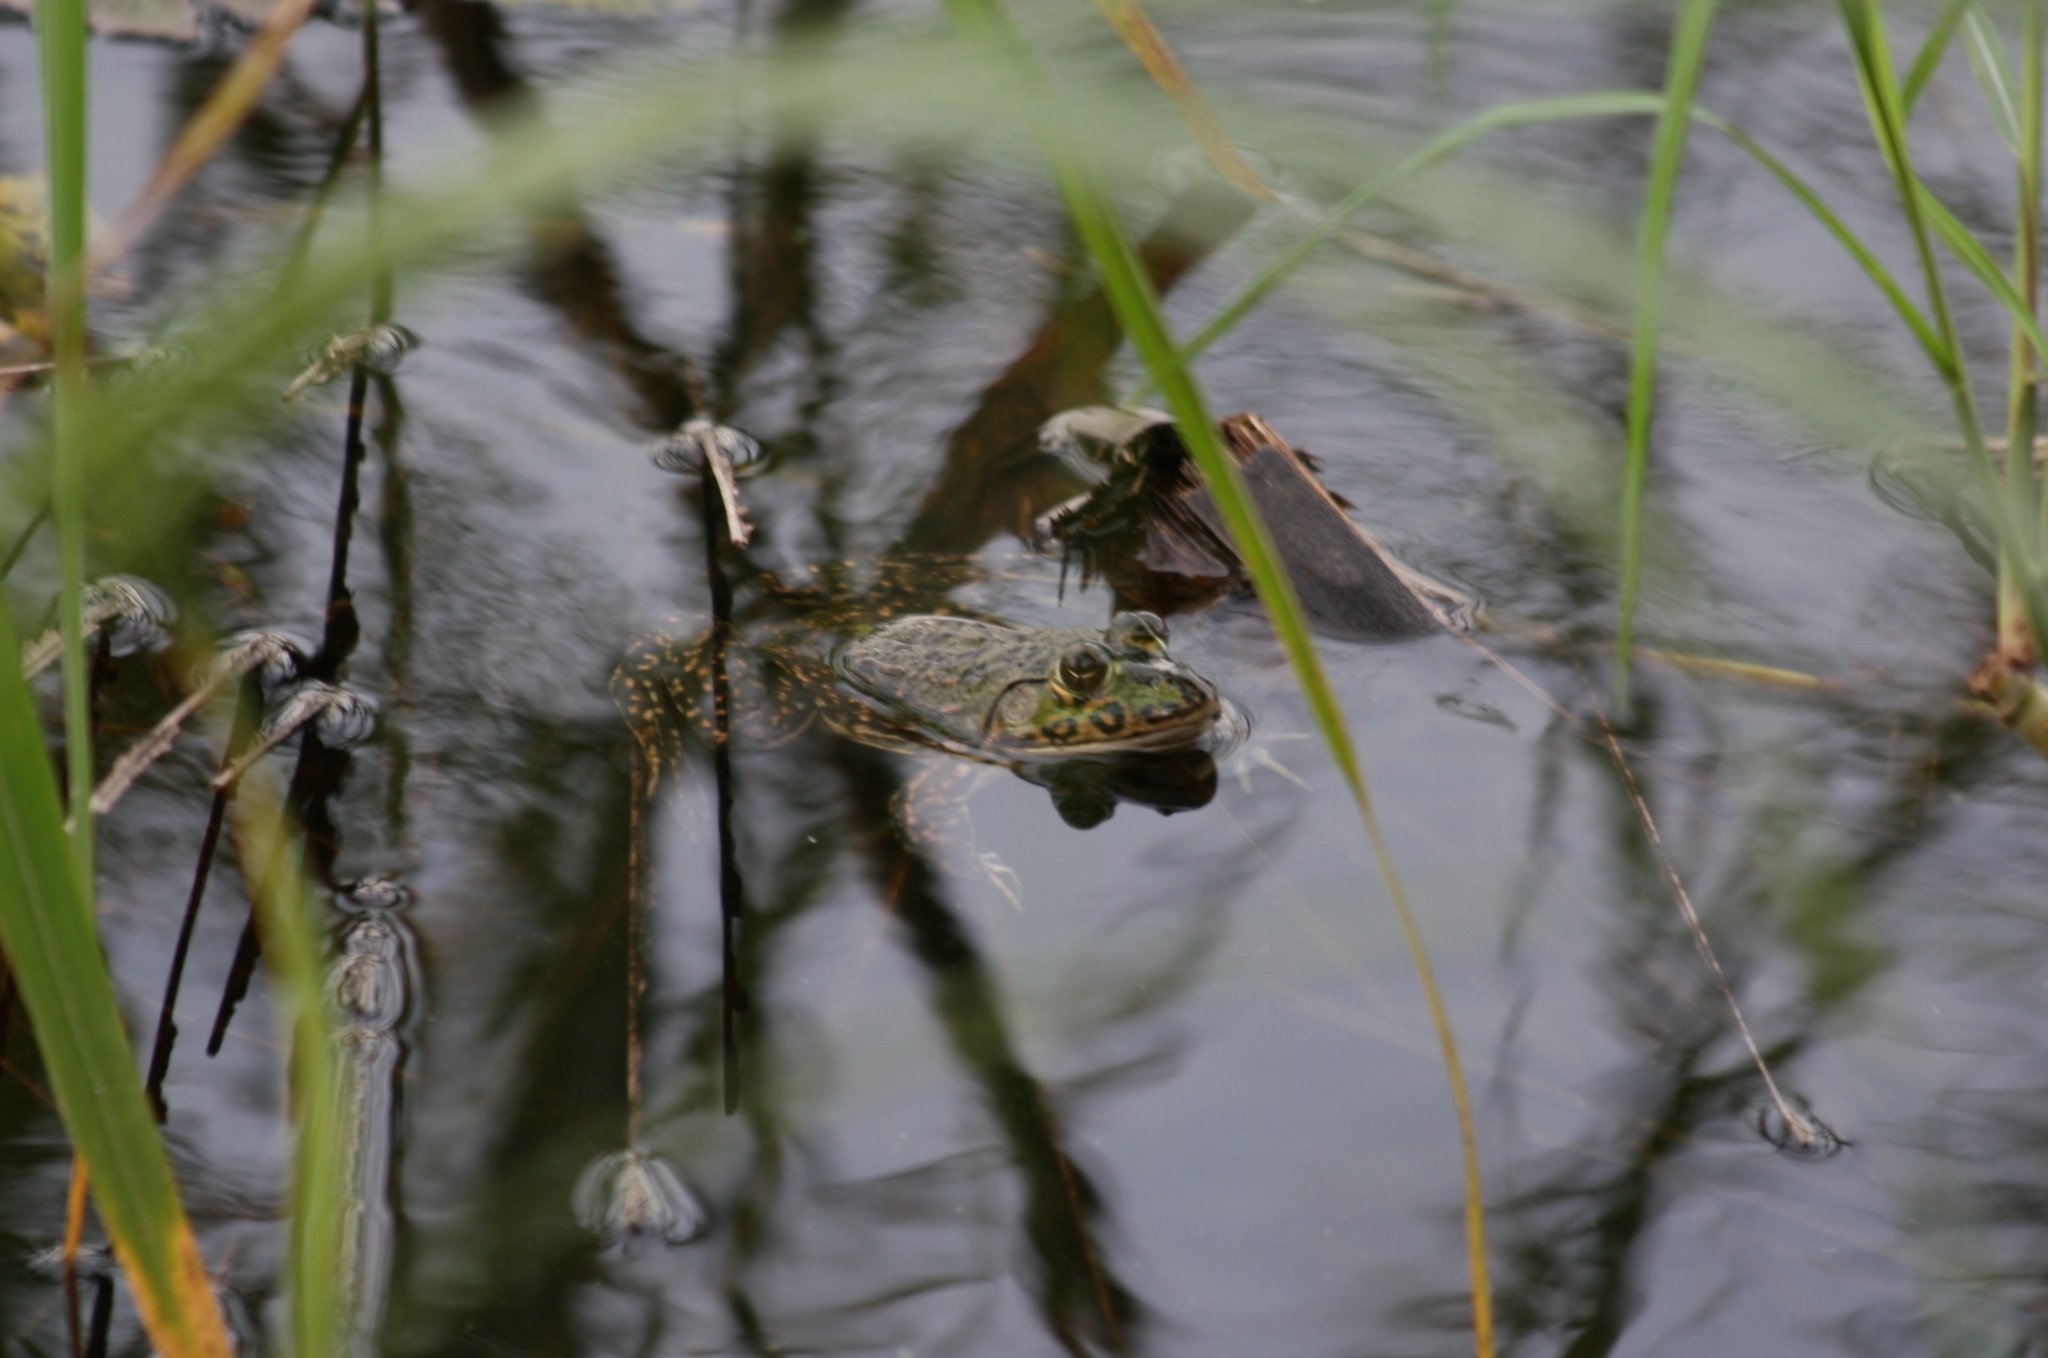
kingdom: Animalia
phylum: Chordata
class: Amphibia
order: Anura
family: Dicroglossidae
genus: Hoplobatrachus
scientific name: Hoplobatrachus occipitalis
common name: Eastern groove-crowned bullfrog
